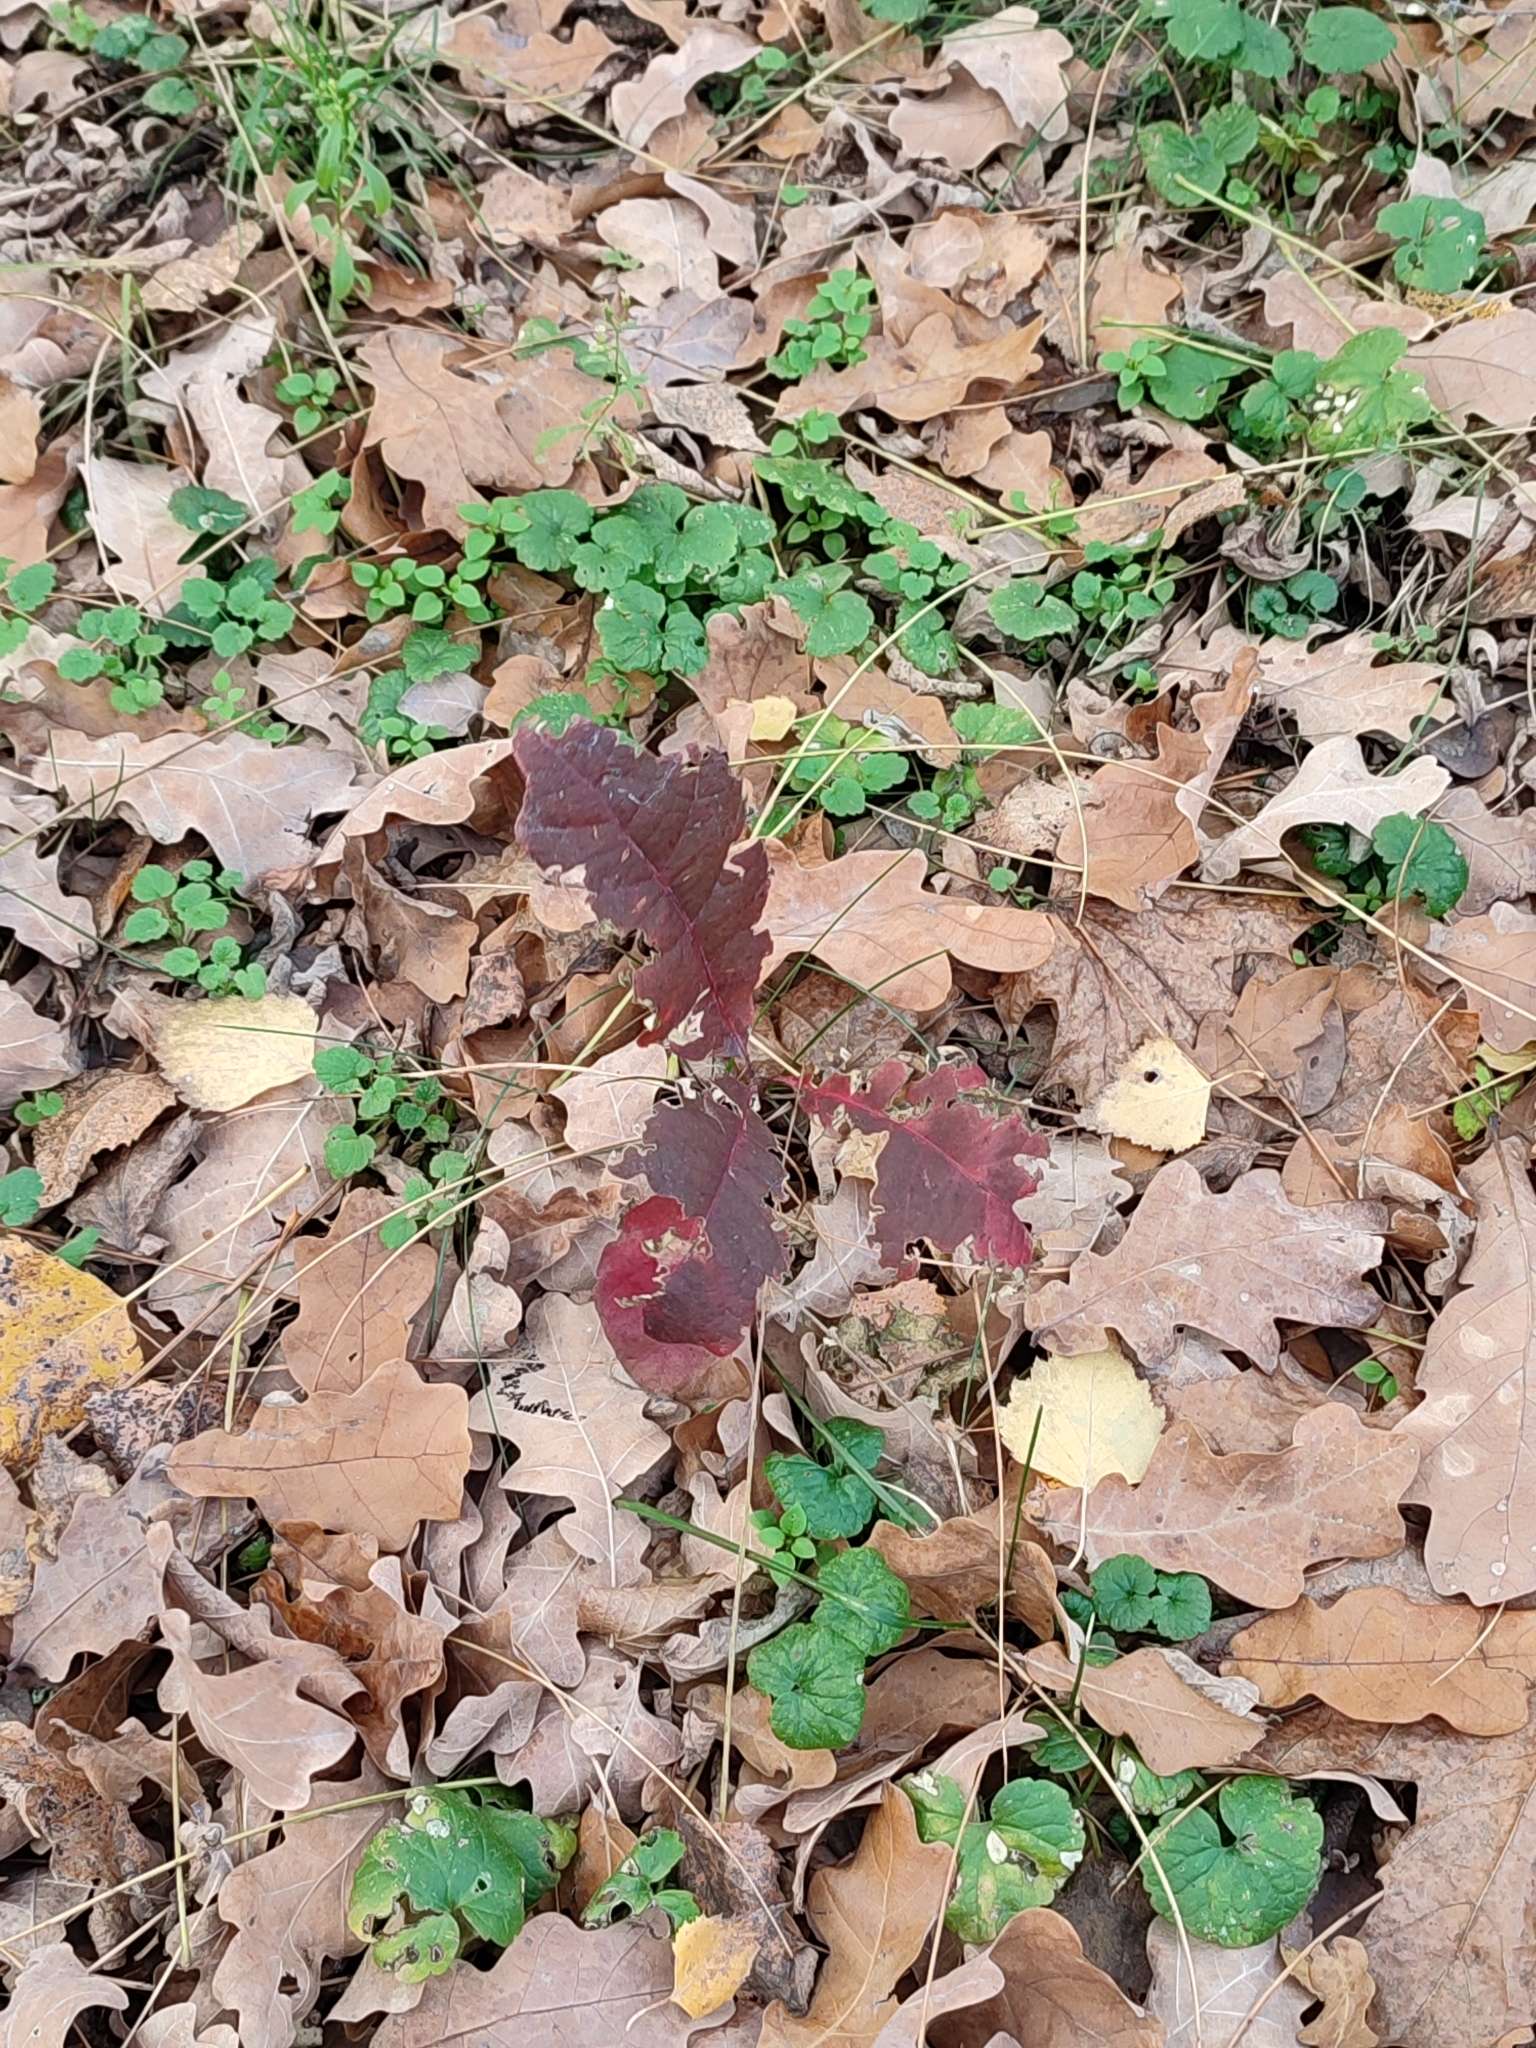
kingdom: Plantae
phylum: Tracheophyta
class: Magnoliopsida
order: Fagales
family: Fagaceae
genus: Quercus
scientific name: Quercus robur
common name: Pedunculate oak
